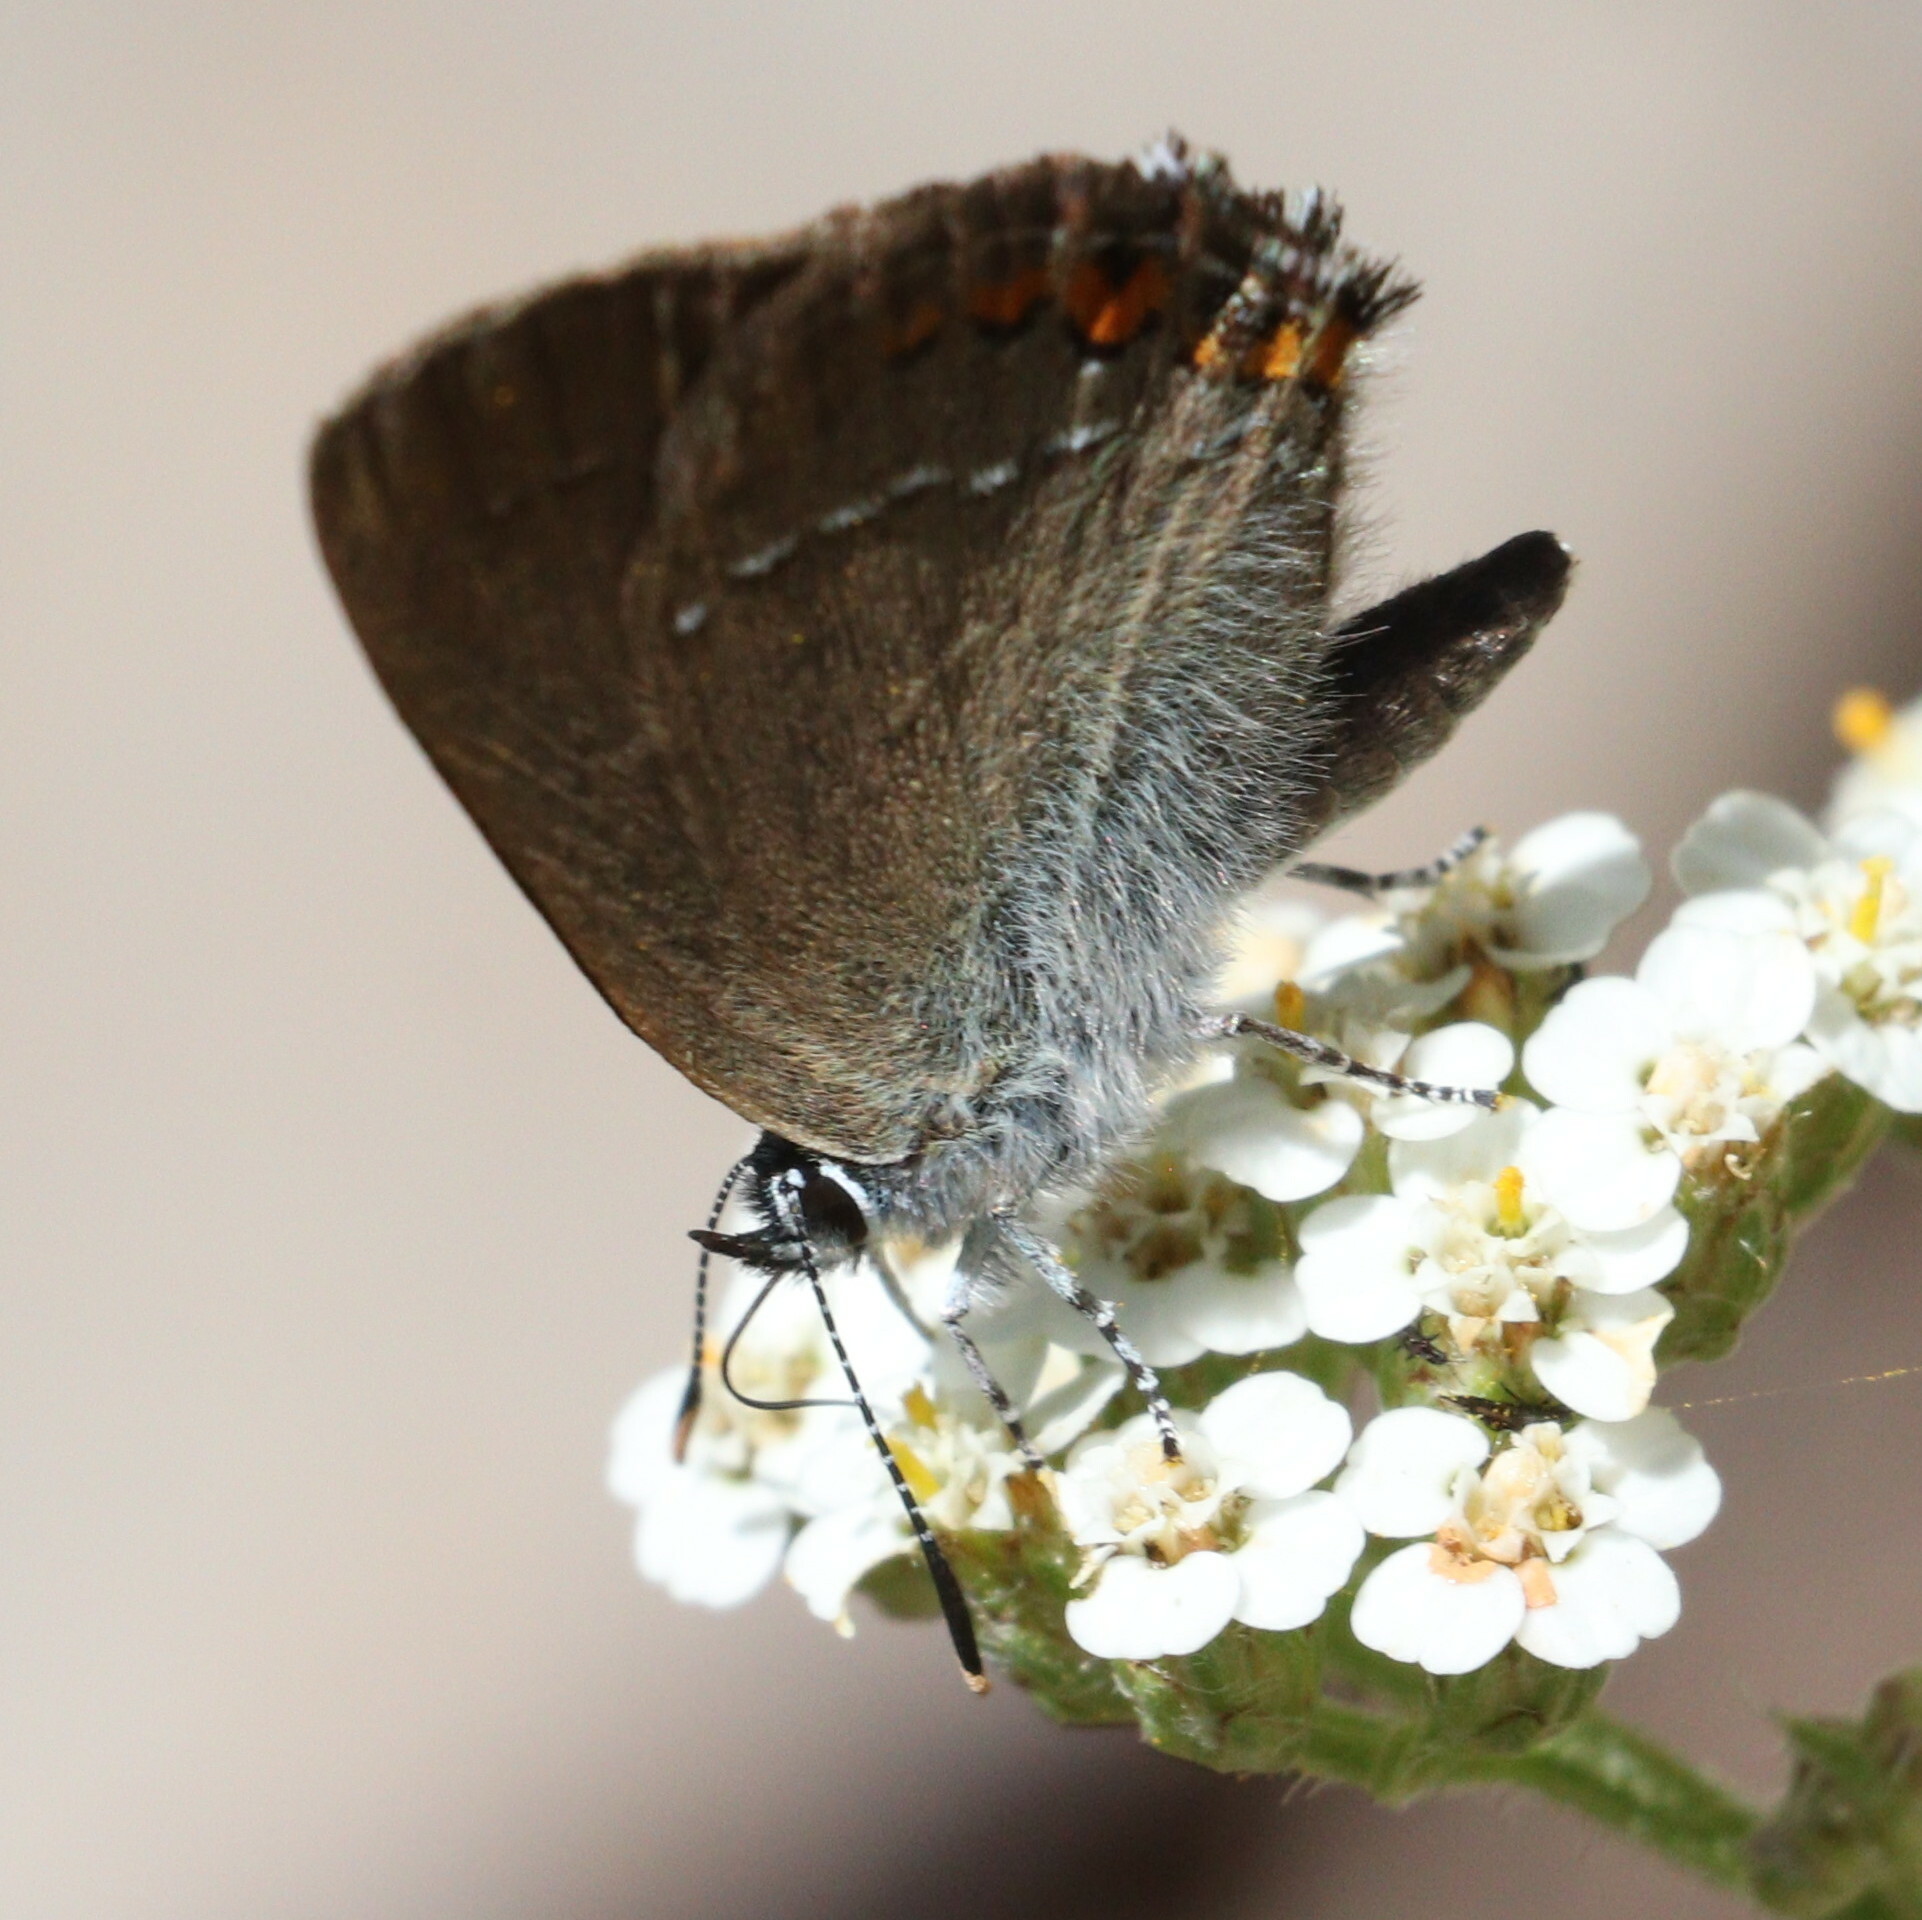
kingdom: Animalia
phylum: Arthropoda
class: Insecta
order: Lepidoptera
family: Lycaenidae
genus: Strymon
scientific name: Strymon acaciae
